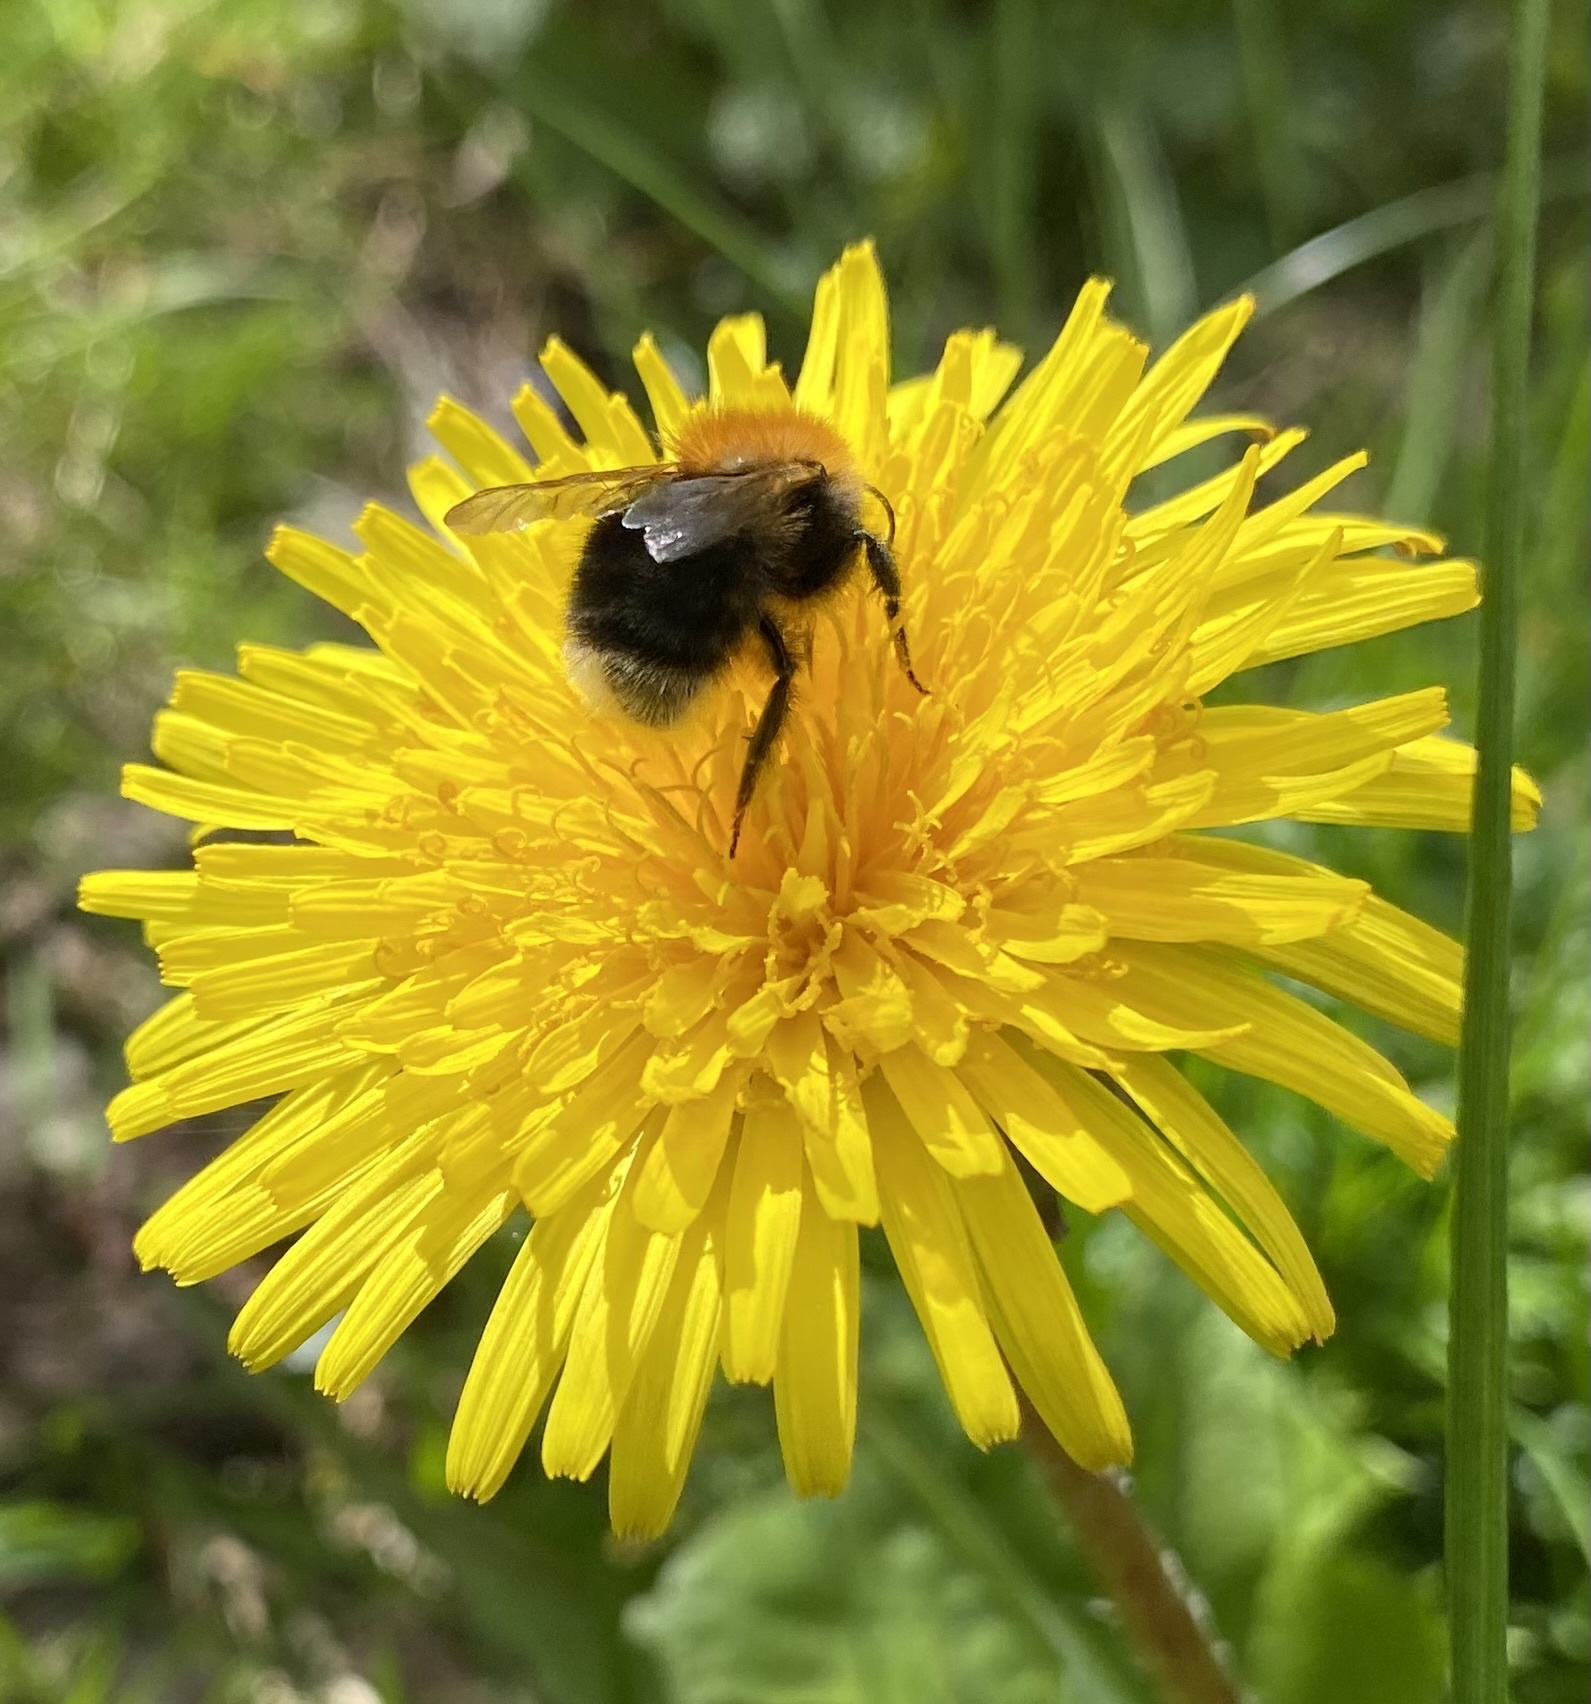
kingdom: Animalia
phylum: Arthropoda
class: Insecta
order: Hymenoptera
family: Apidae
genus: Bombus
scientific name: Bombus hypnorum
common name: New garden bumblebee
